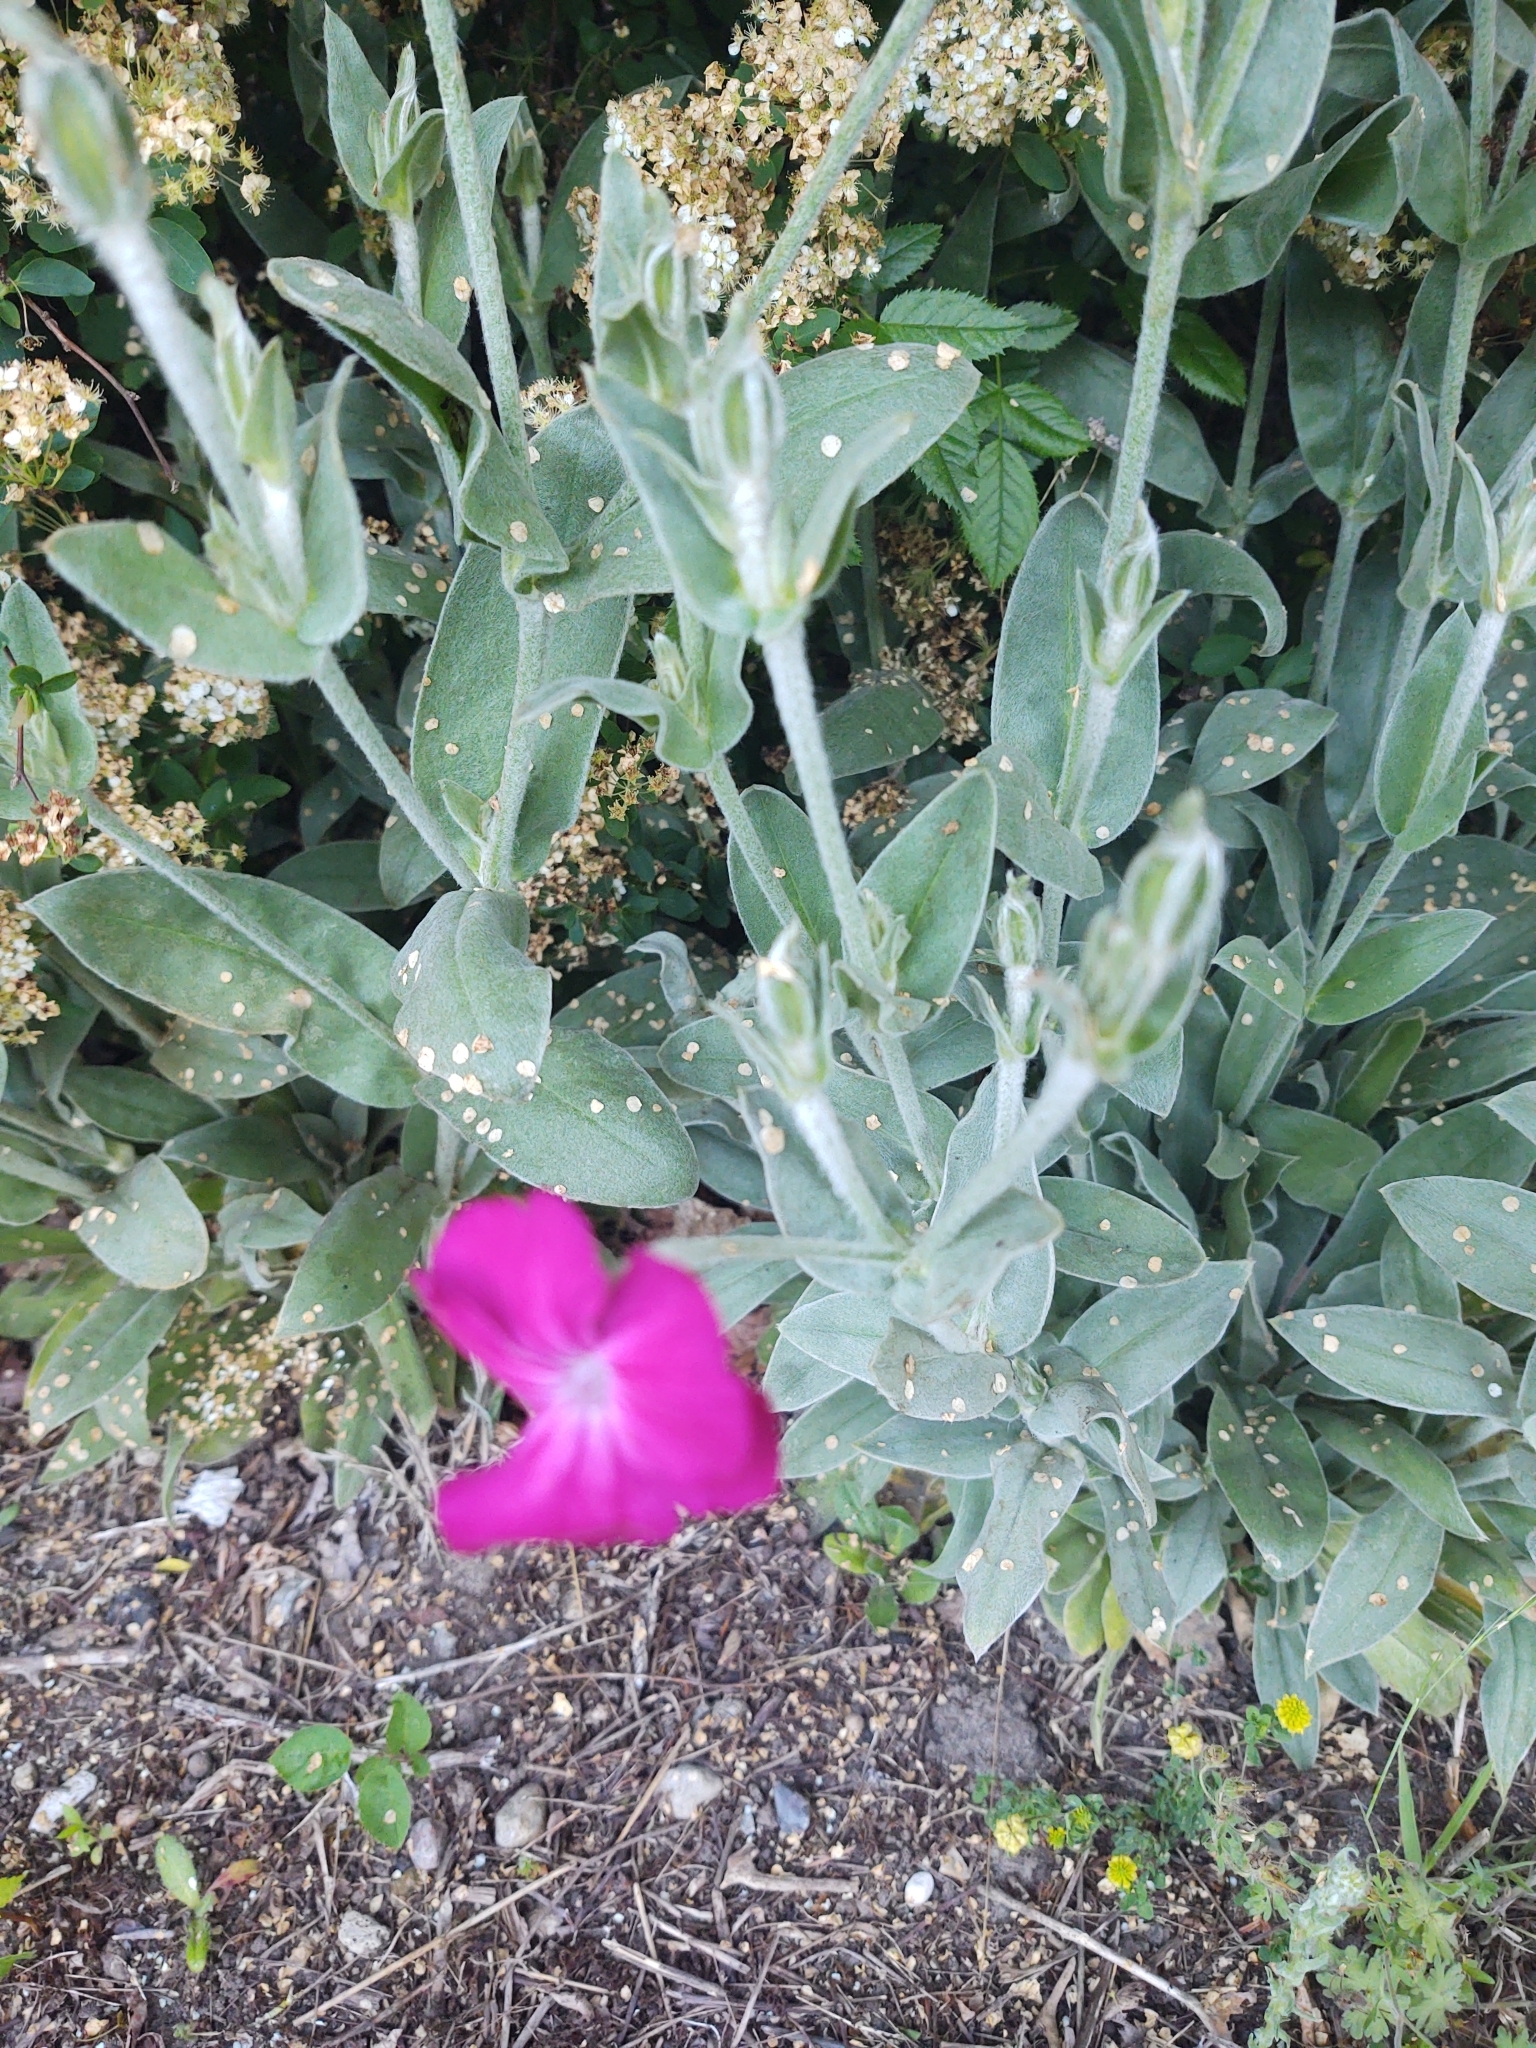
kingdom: Plantae
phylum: Tracheophyta
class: Magnoliopsida
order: Caryophyllales
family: Caryophyllaceae
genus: Silene
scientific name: Silene coronaria
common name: Rose campion
